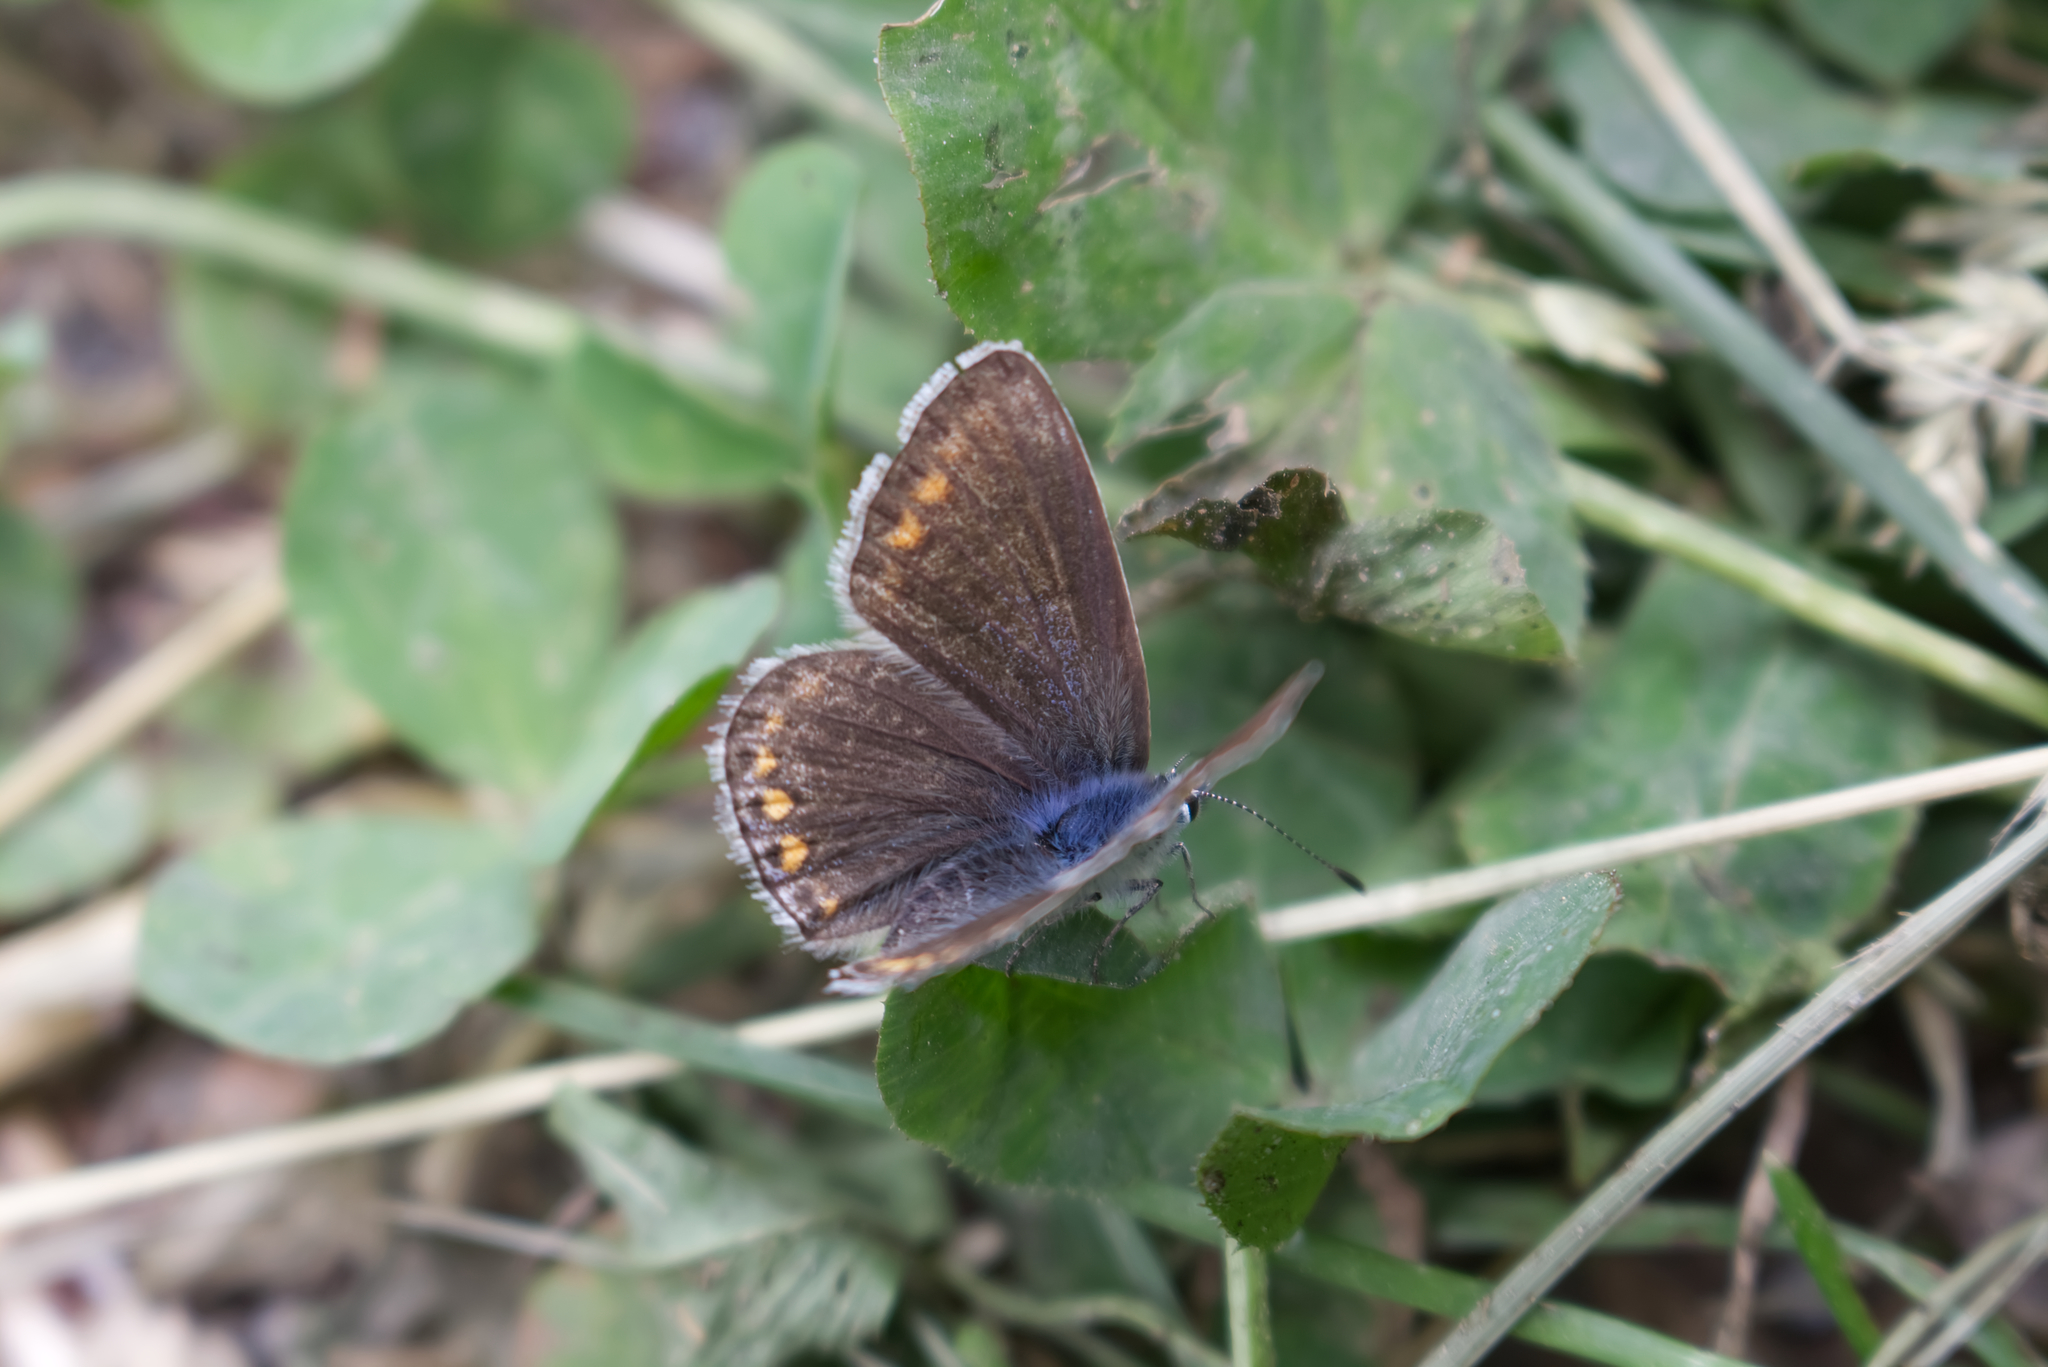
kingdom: Animalia
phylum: Arthropoda
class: Insecta
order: Lepidoptera
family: Lycaenidae
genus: Polyommatus
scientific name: Polyommatus icarus
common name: Common blue
